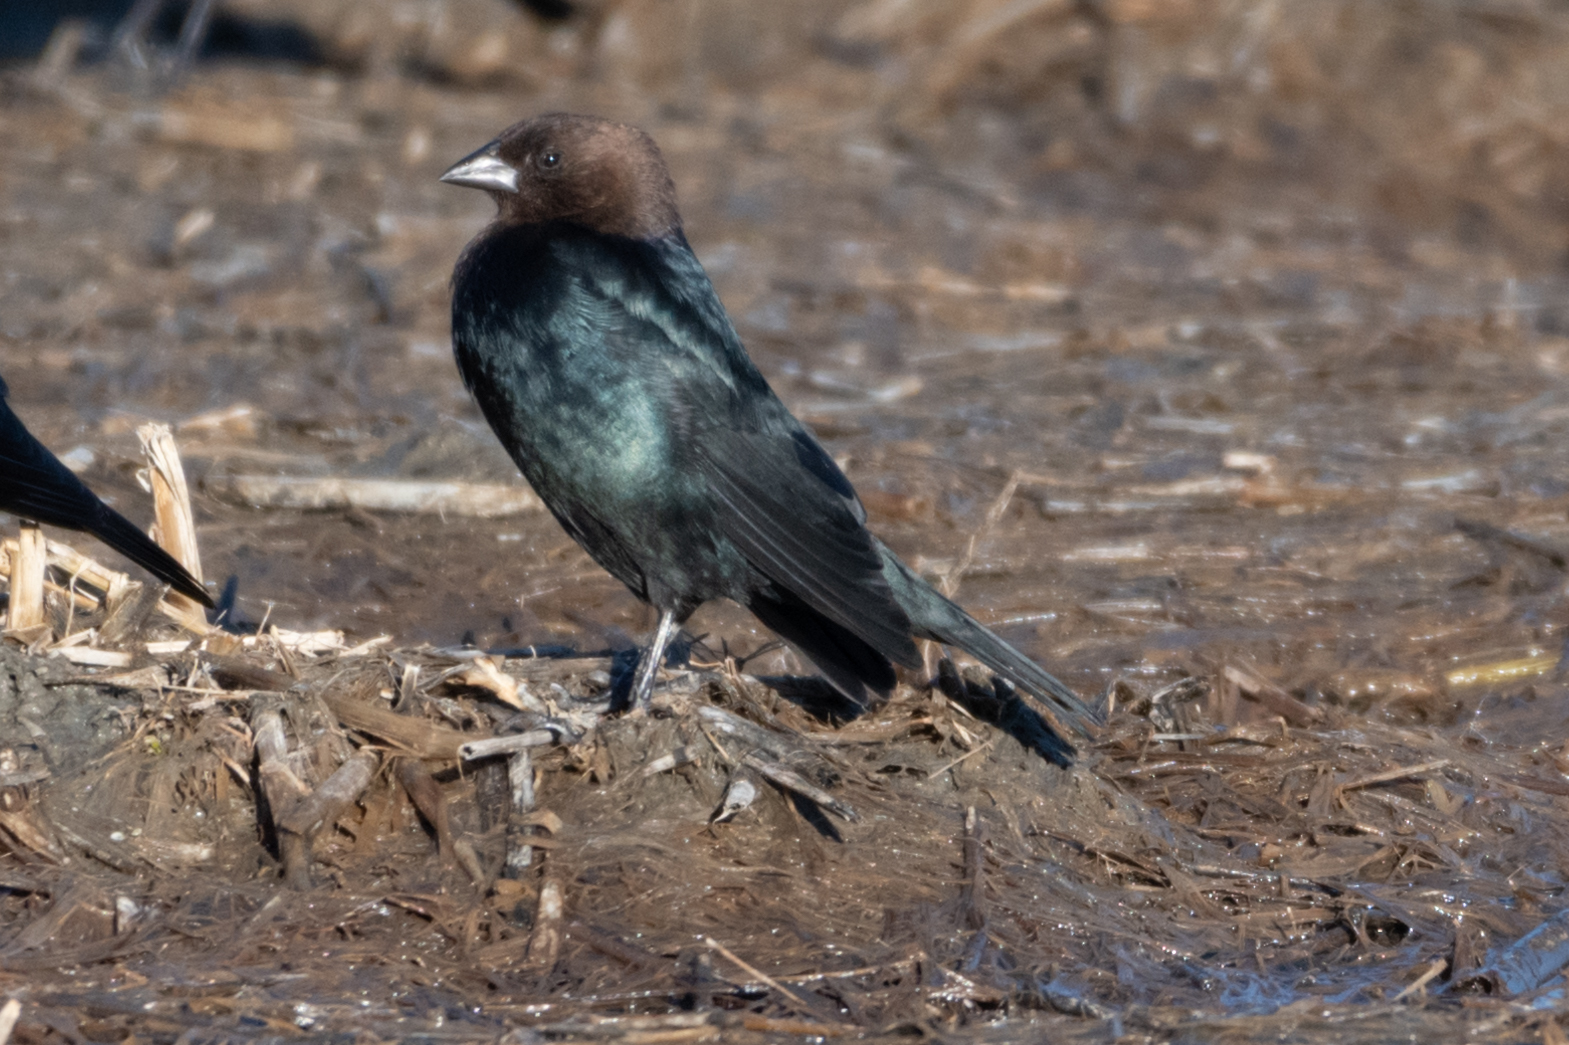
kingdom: Animalia
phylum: Chordata
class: Aves
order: Passeriformes
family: Icteridae
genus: Molothrus
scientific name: Molothrus ater
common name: Brown-headed cowbird
